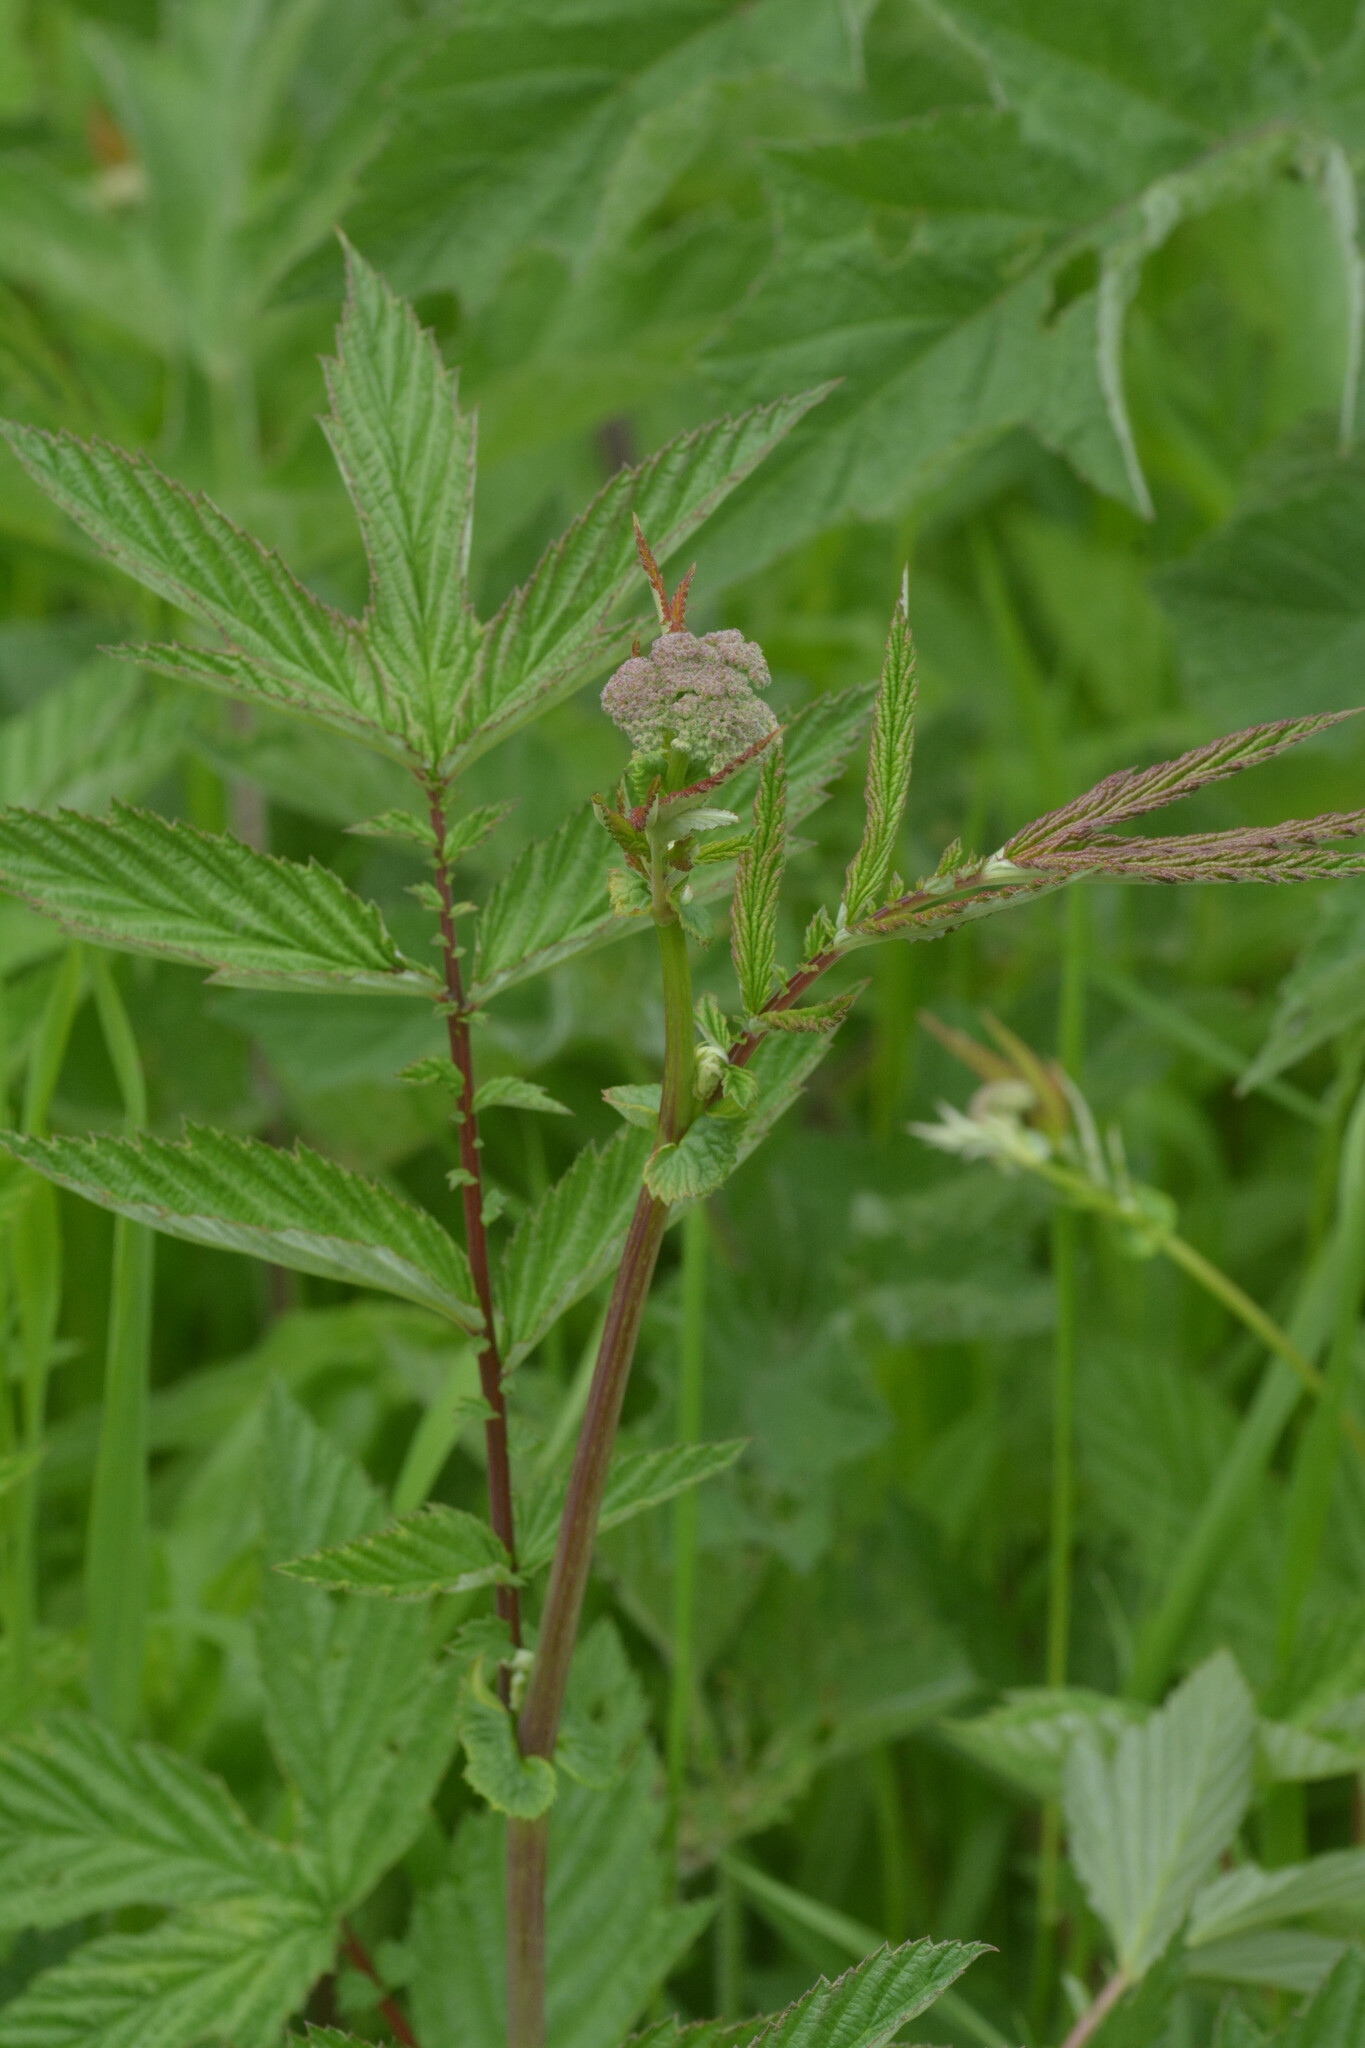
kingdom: Plantae
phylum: Tracheophyta
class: Magnoliopsida
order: Rosales
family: Rosaceae
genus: Filipendula
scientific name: Filipendula ulmaria
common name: Meadowsweet
